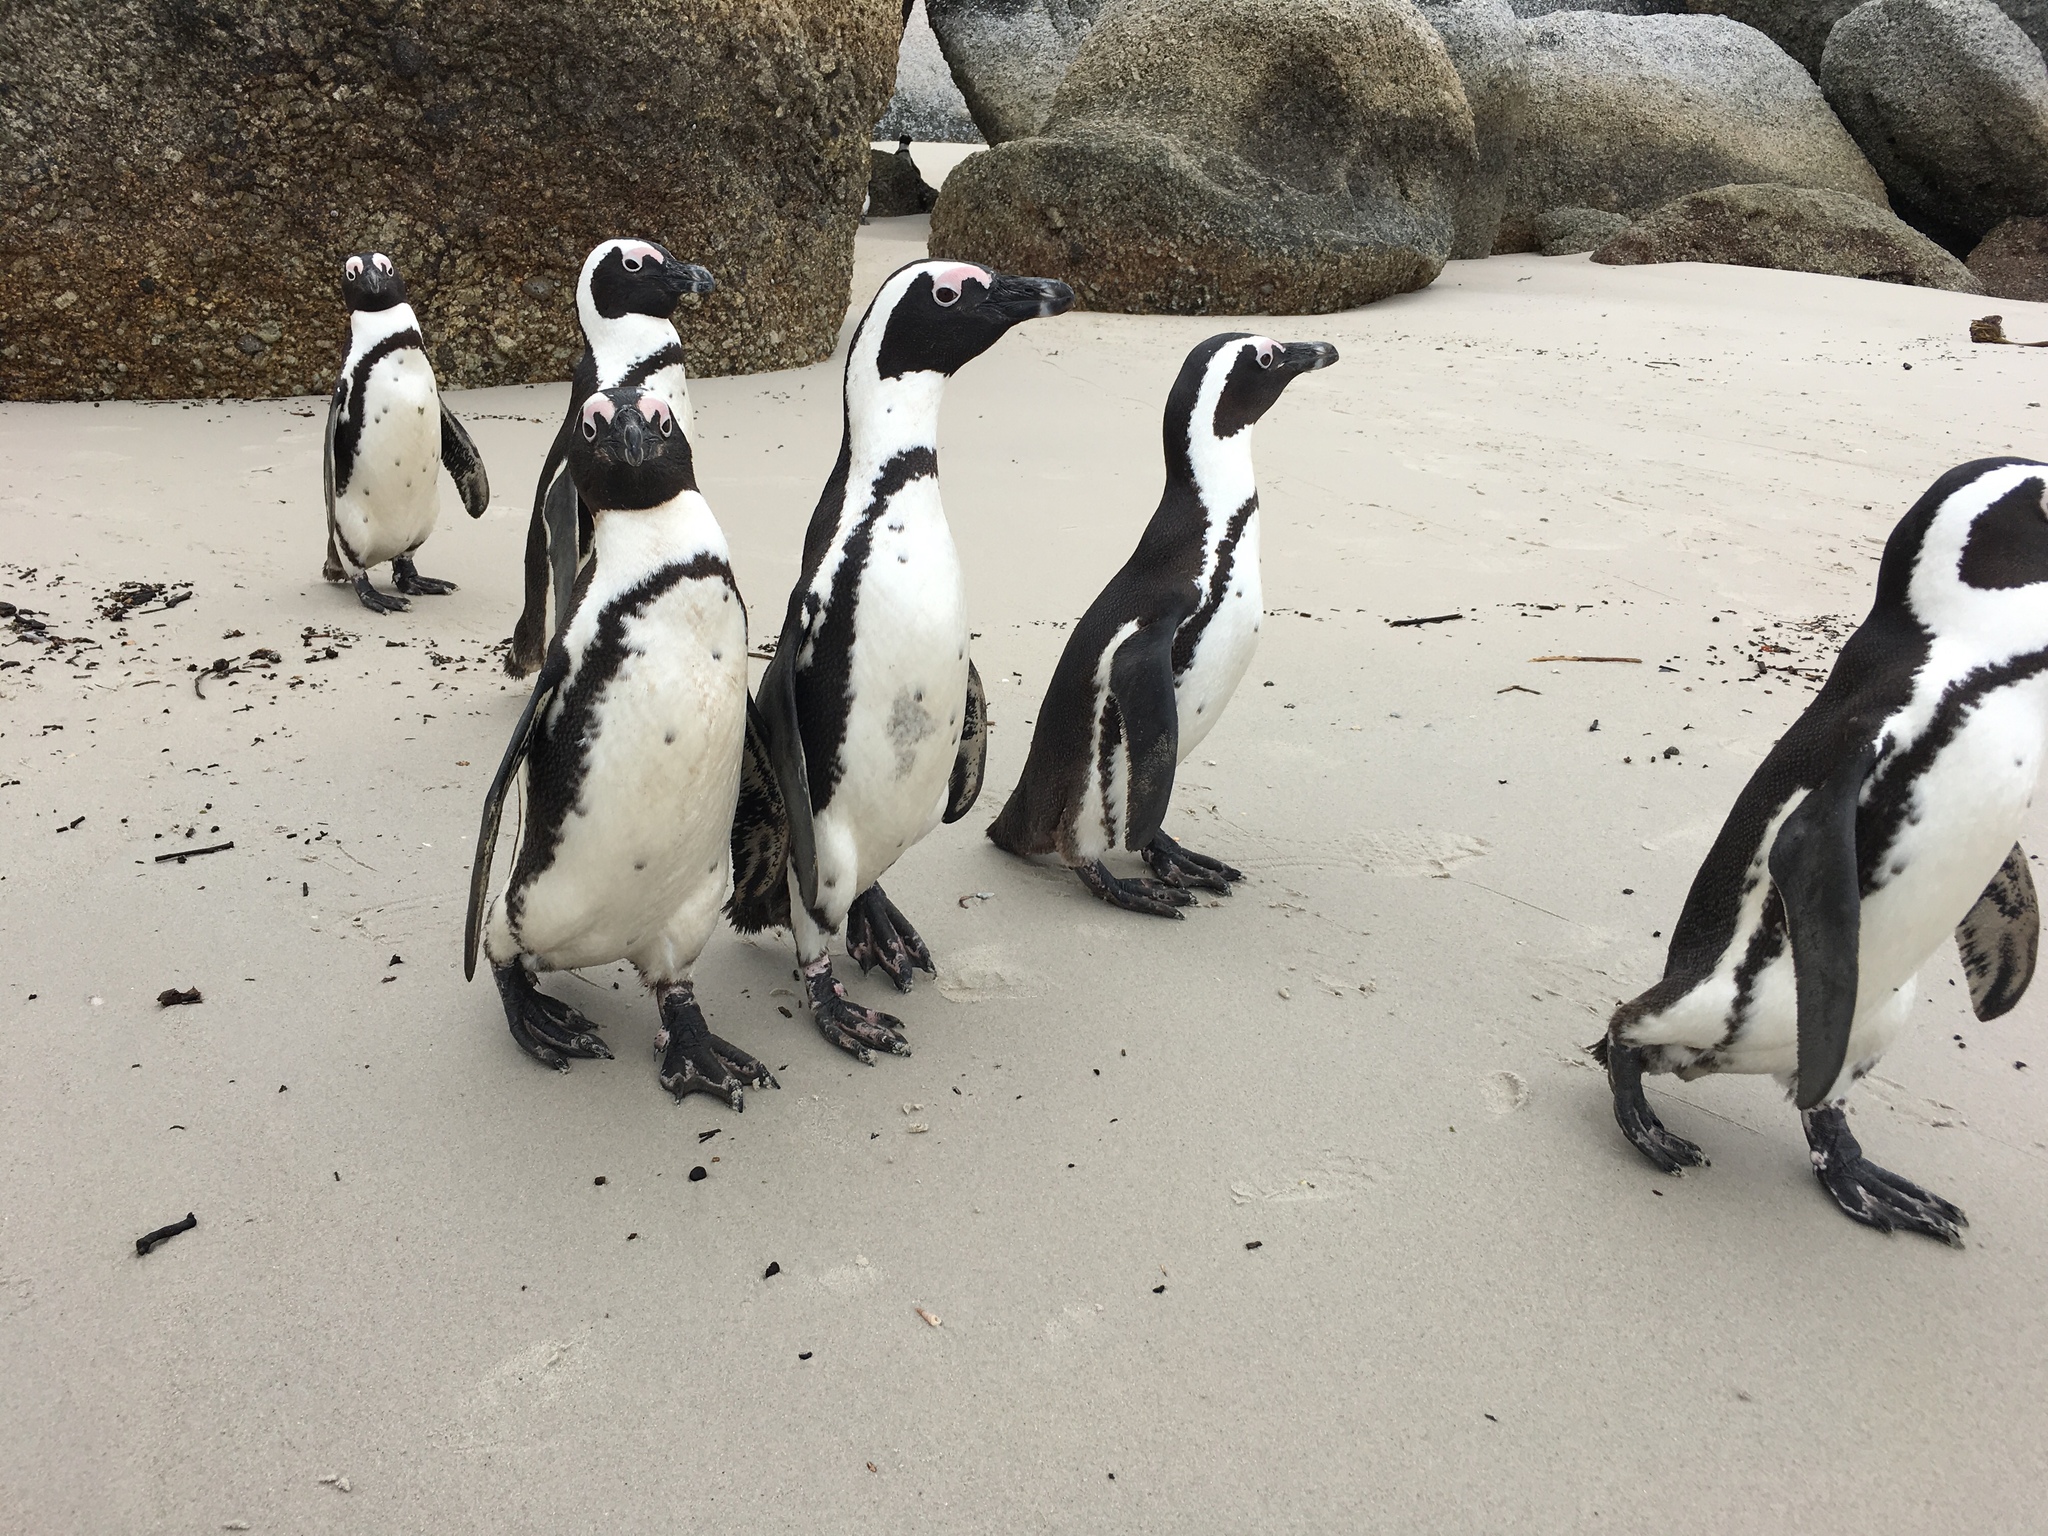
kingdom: Animalia
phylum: Chordata
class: Aves
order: Sphenisciformes
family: Spheniscidae
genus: Spheniscus
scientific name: Spheniscus demersus
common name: African penguin
